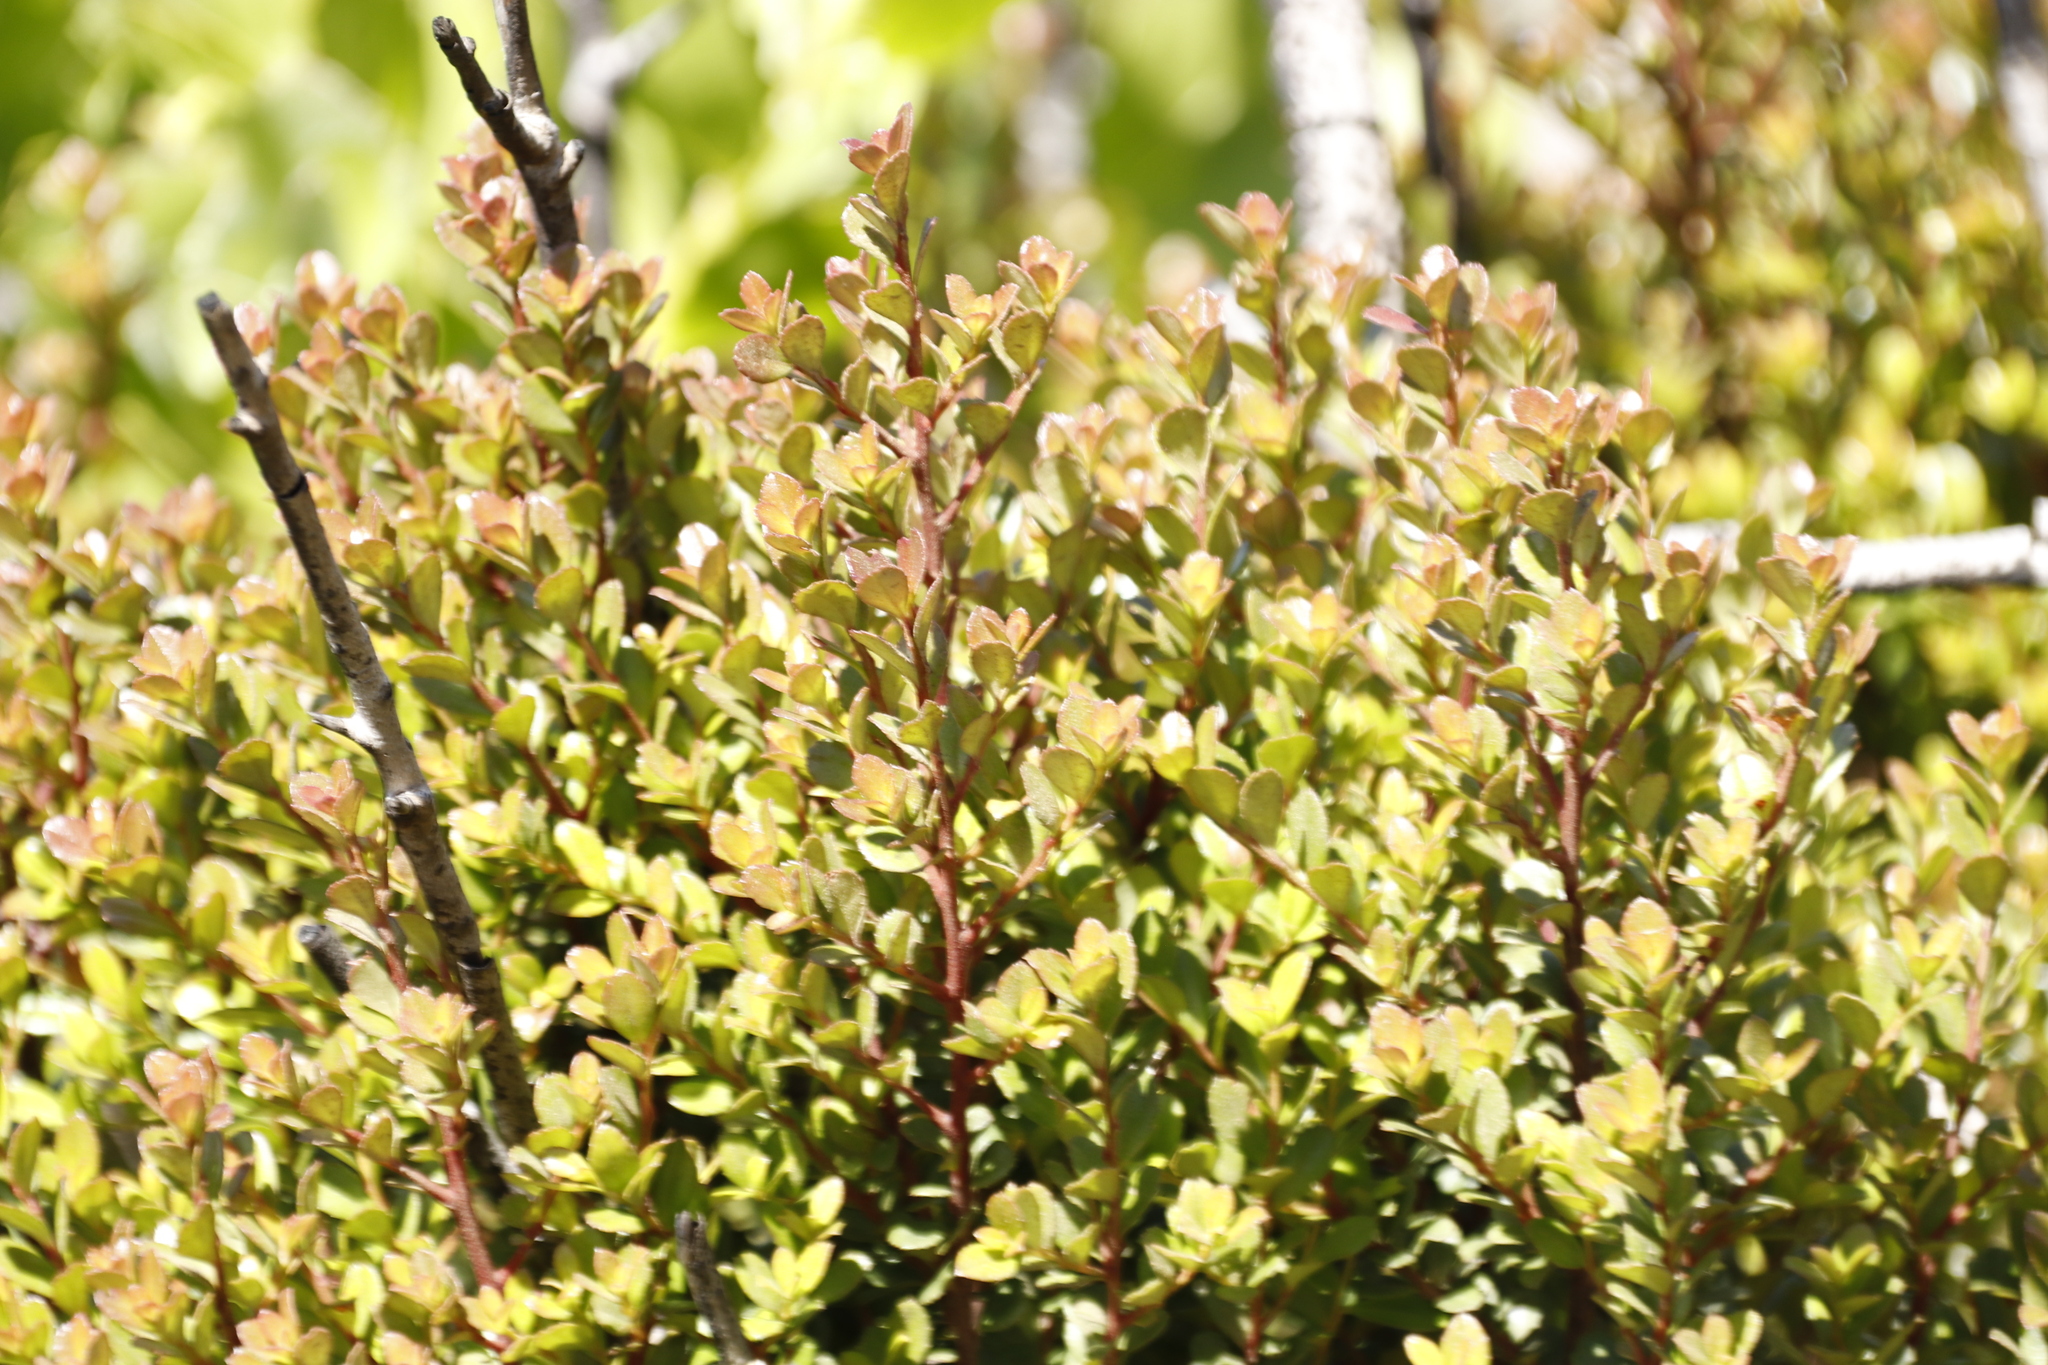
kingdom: Plantae
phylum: Tracheophyta
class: Magnoliopsida
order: Ericales
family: Primulaceae
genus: Myrsine
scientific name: Myrsine africana
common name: African-boxwood
